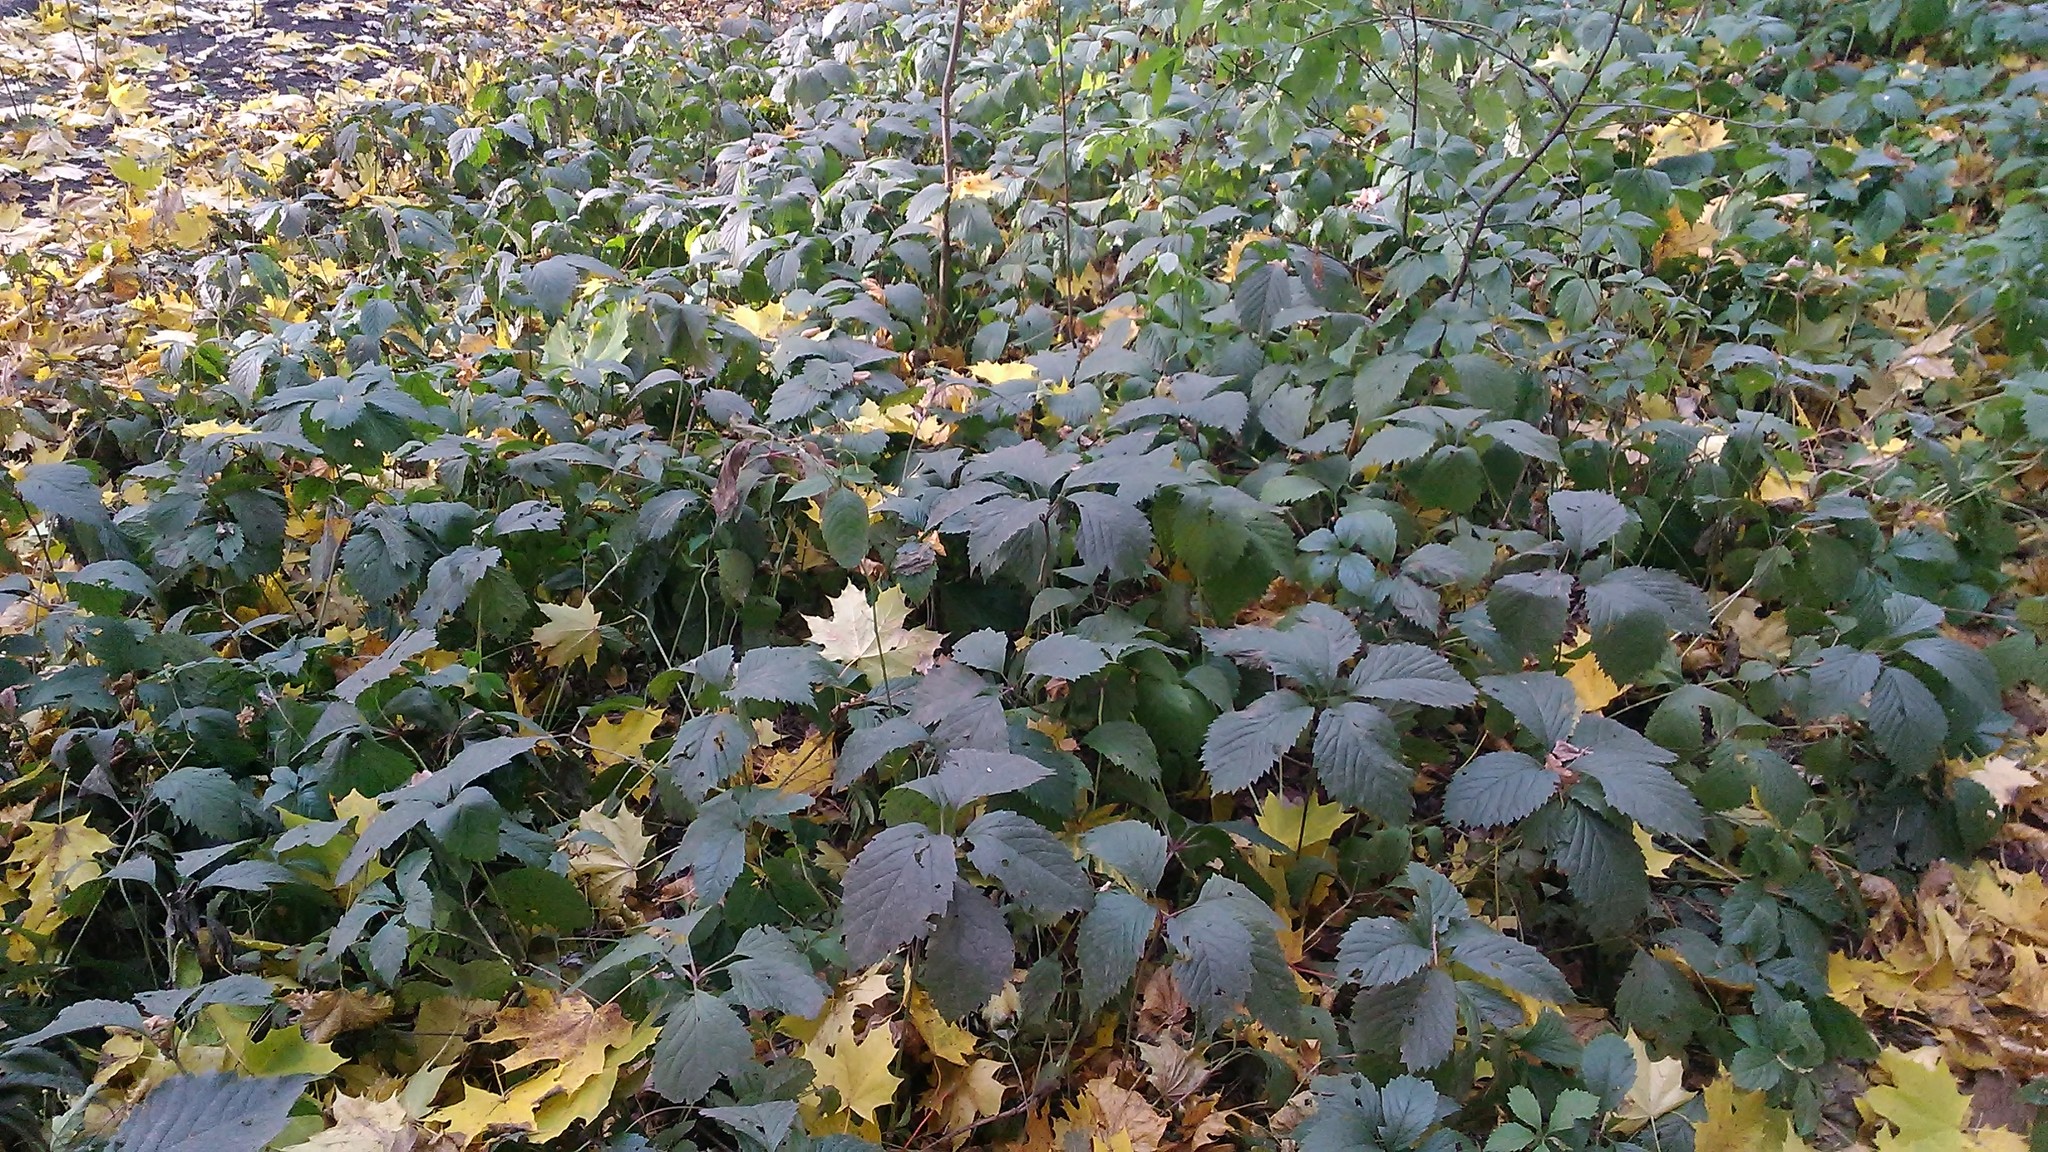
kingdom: Plantae
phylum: Tracheophyta
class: Magnoliopsida
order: Vitales
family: Vitaceae
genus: Parthenocissus
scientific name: Parthenocissus inserta
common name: False virginia-creeper
